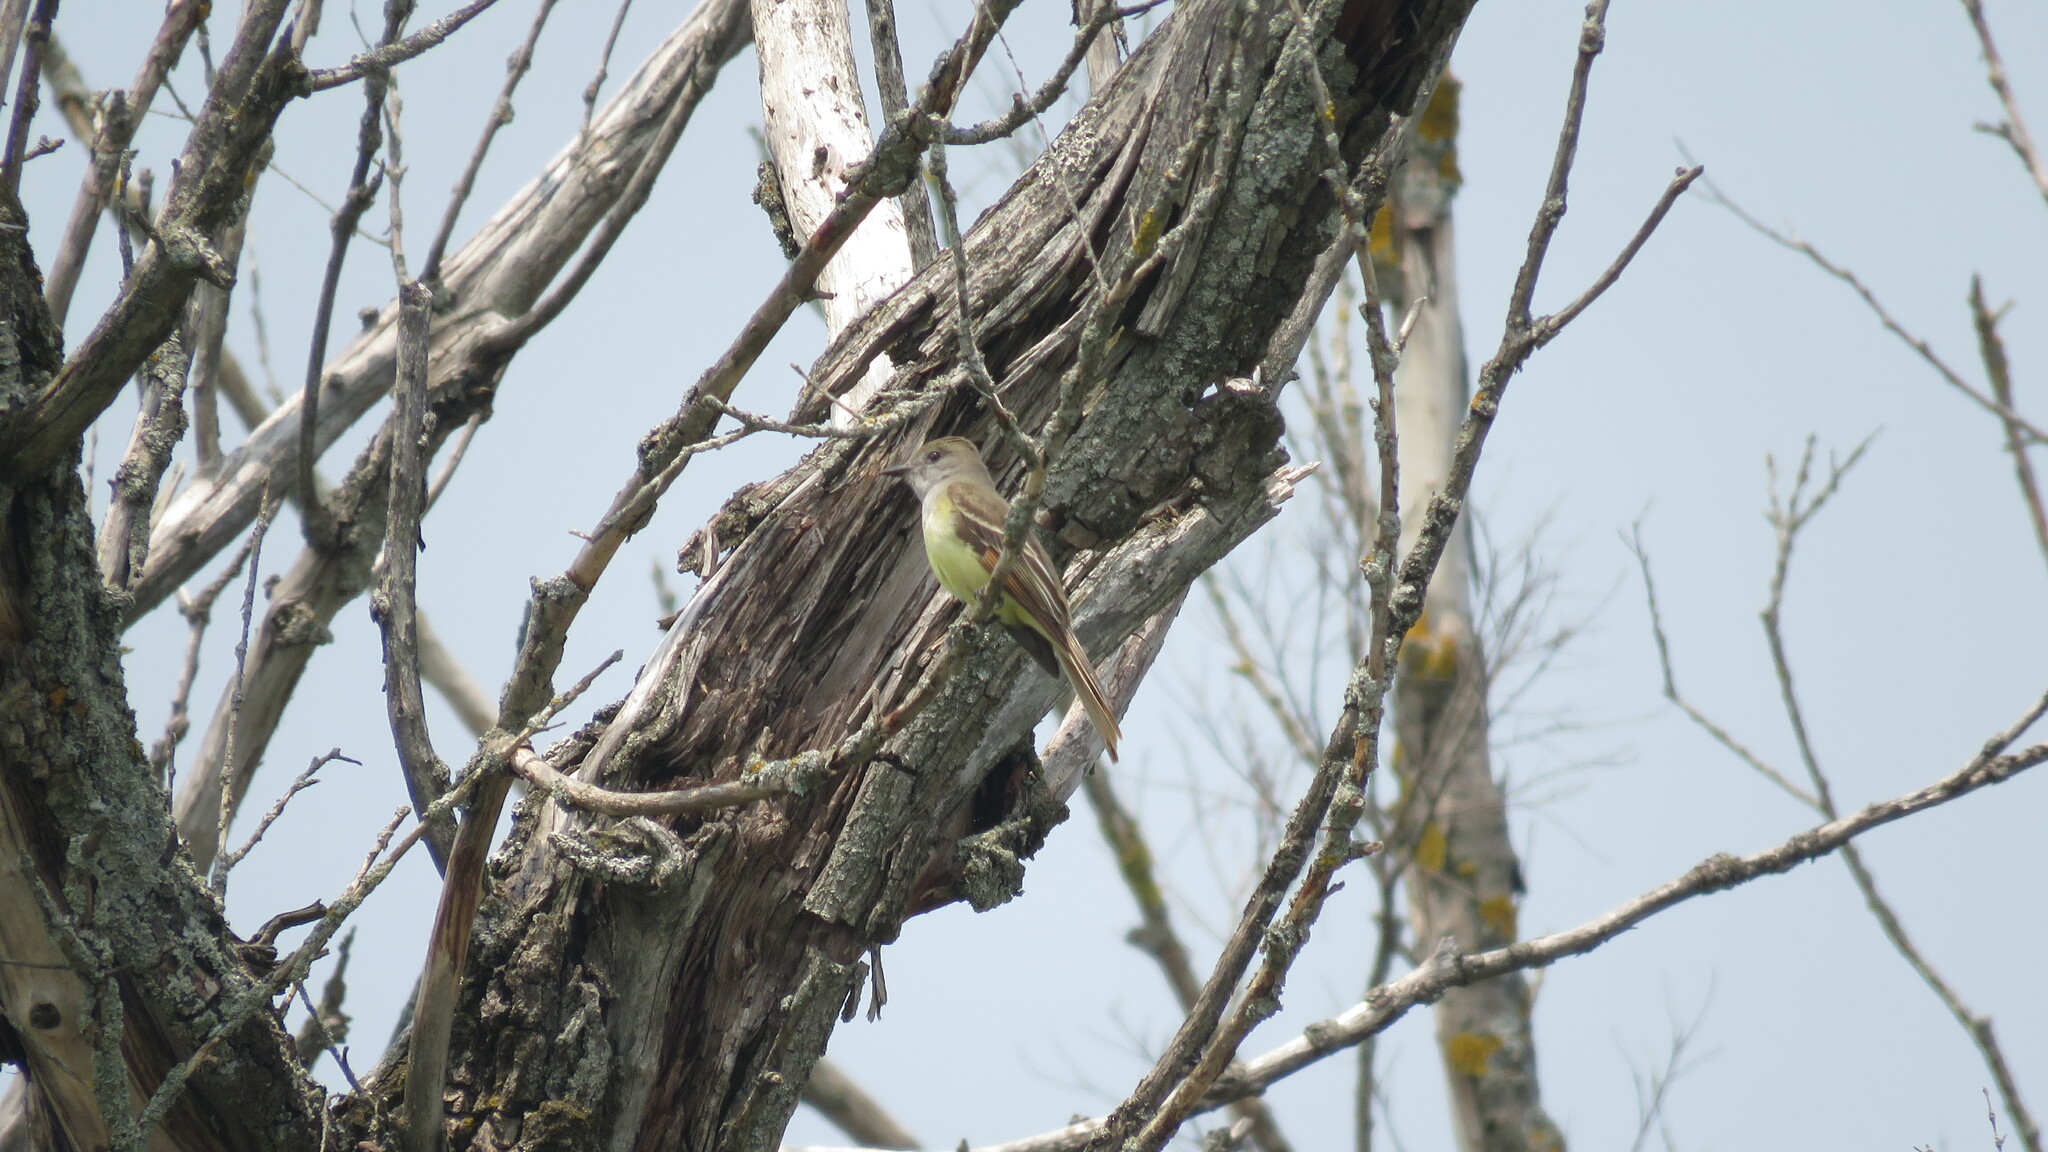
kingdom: Animalia
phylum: Chordata
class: Aves
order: Passeriformes
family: Tyrannidae
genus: Myiarchus
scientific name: Myiarchus crinitus
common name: Great crested flycatcher
